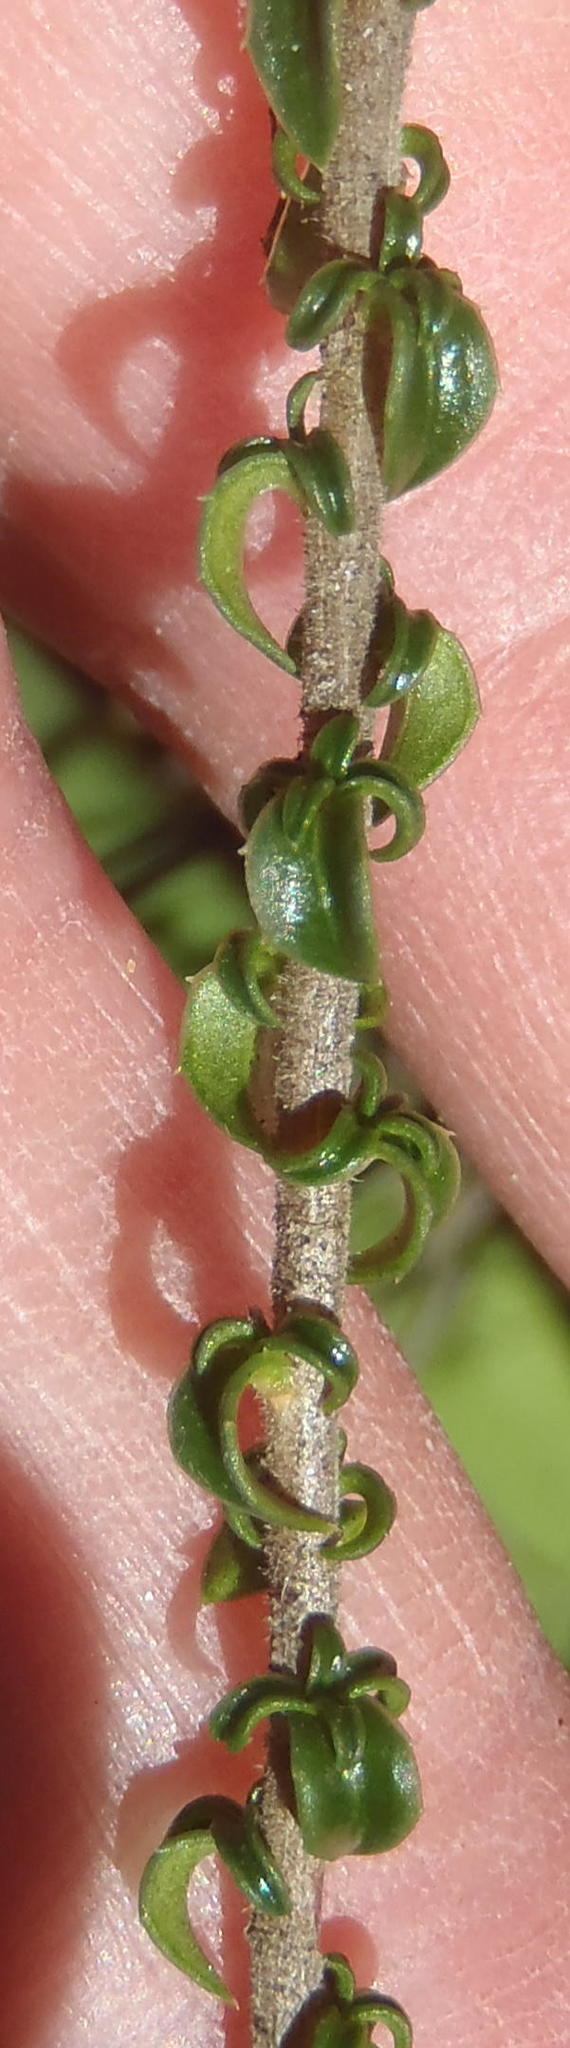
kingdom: Plantae
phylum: Tracheophyta
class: Magnoliopsida
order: Asterales
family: Campanulaceae
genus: Wahlenbergia
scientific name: Wahlenbergia desmantha
